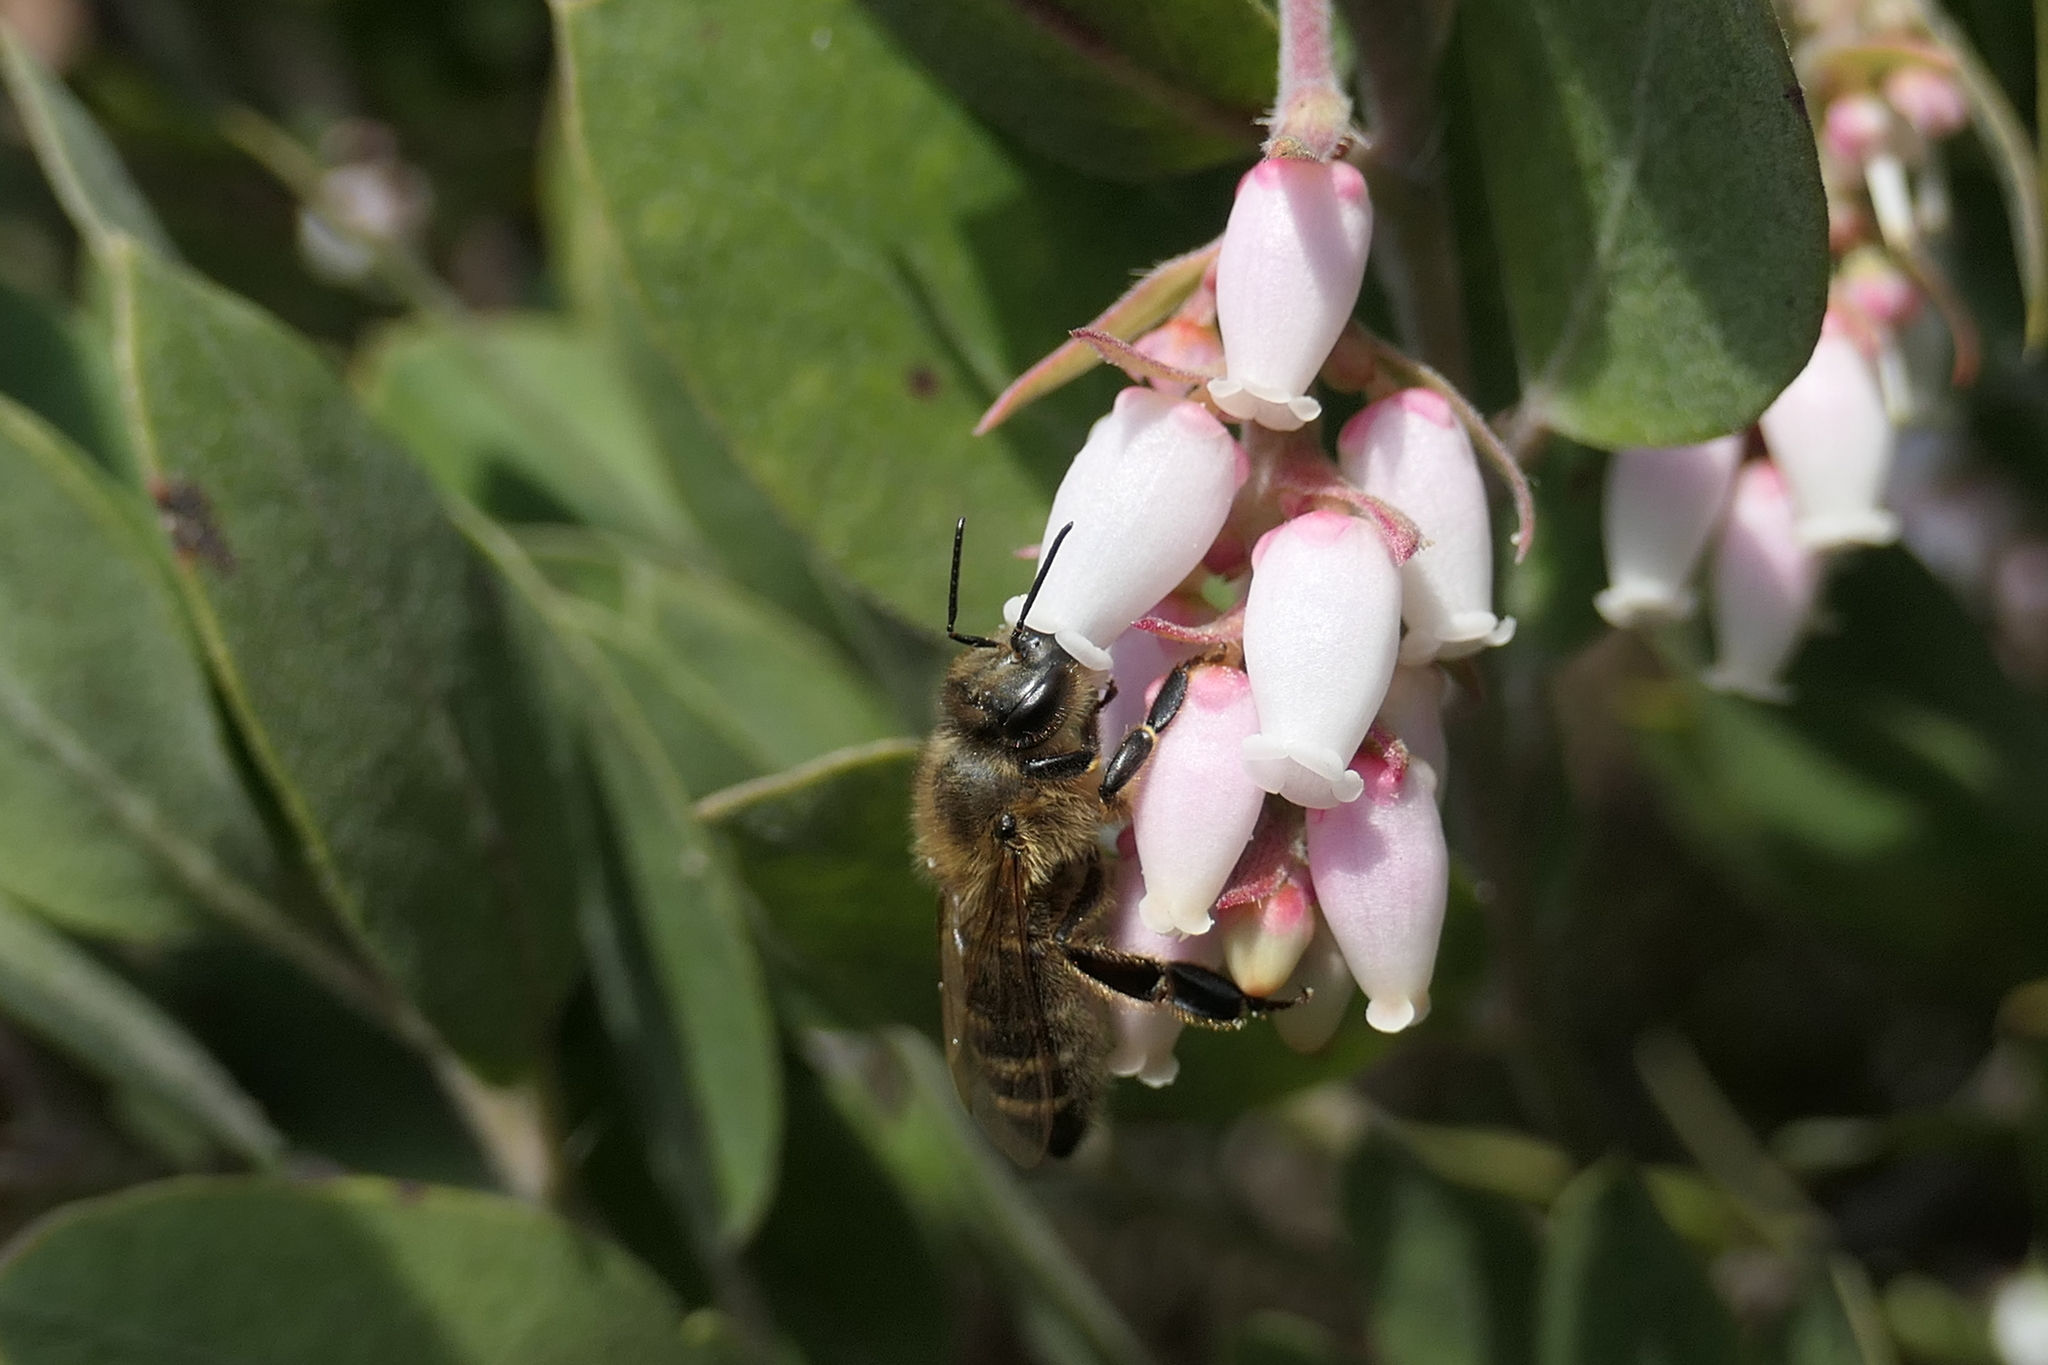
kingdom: Animalia
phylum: Arthropoda
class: Insecta
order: Hymenoptera
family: Apidae
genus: Apis
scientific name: Apis mellifera
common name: Honey bee
